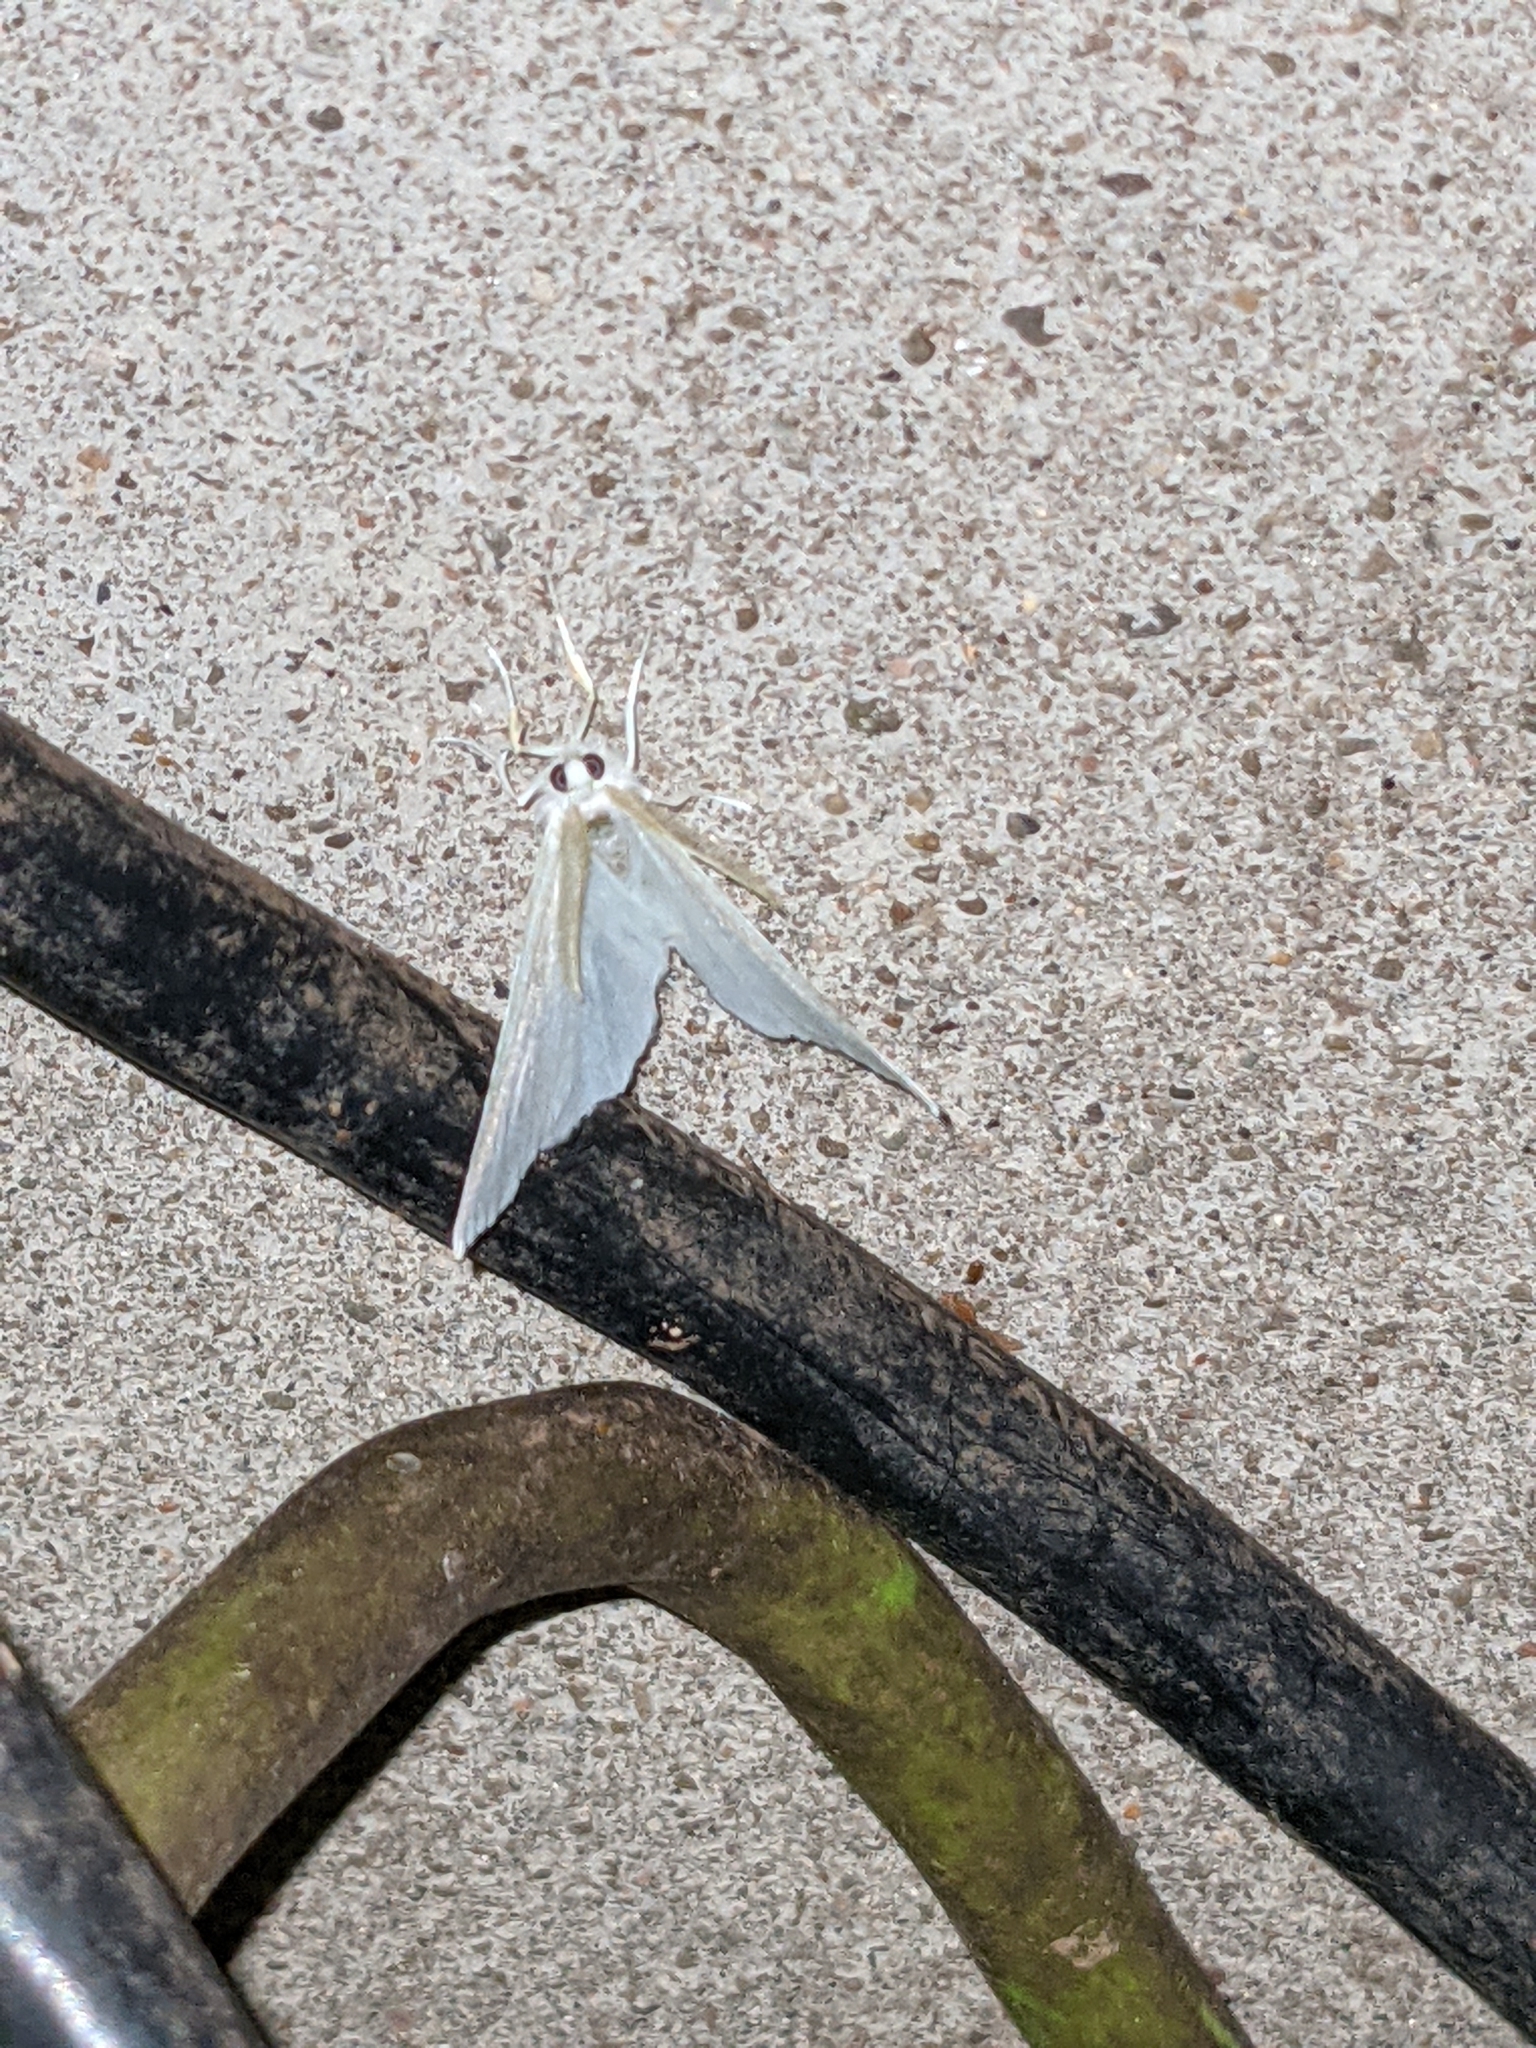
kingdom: Animalia
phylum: Arthropoda
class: Insecta
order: Lepidoptera
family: Geometridae
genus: Ennomos
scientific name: Ennomos subsignaria
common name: Elm spanworm
